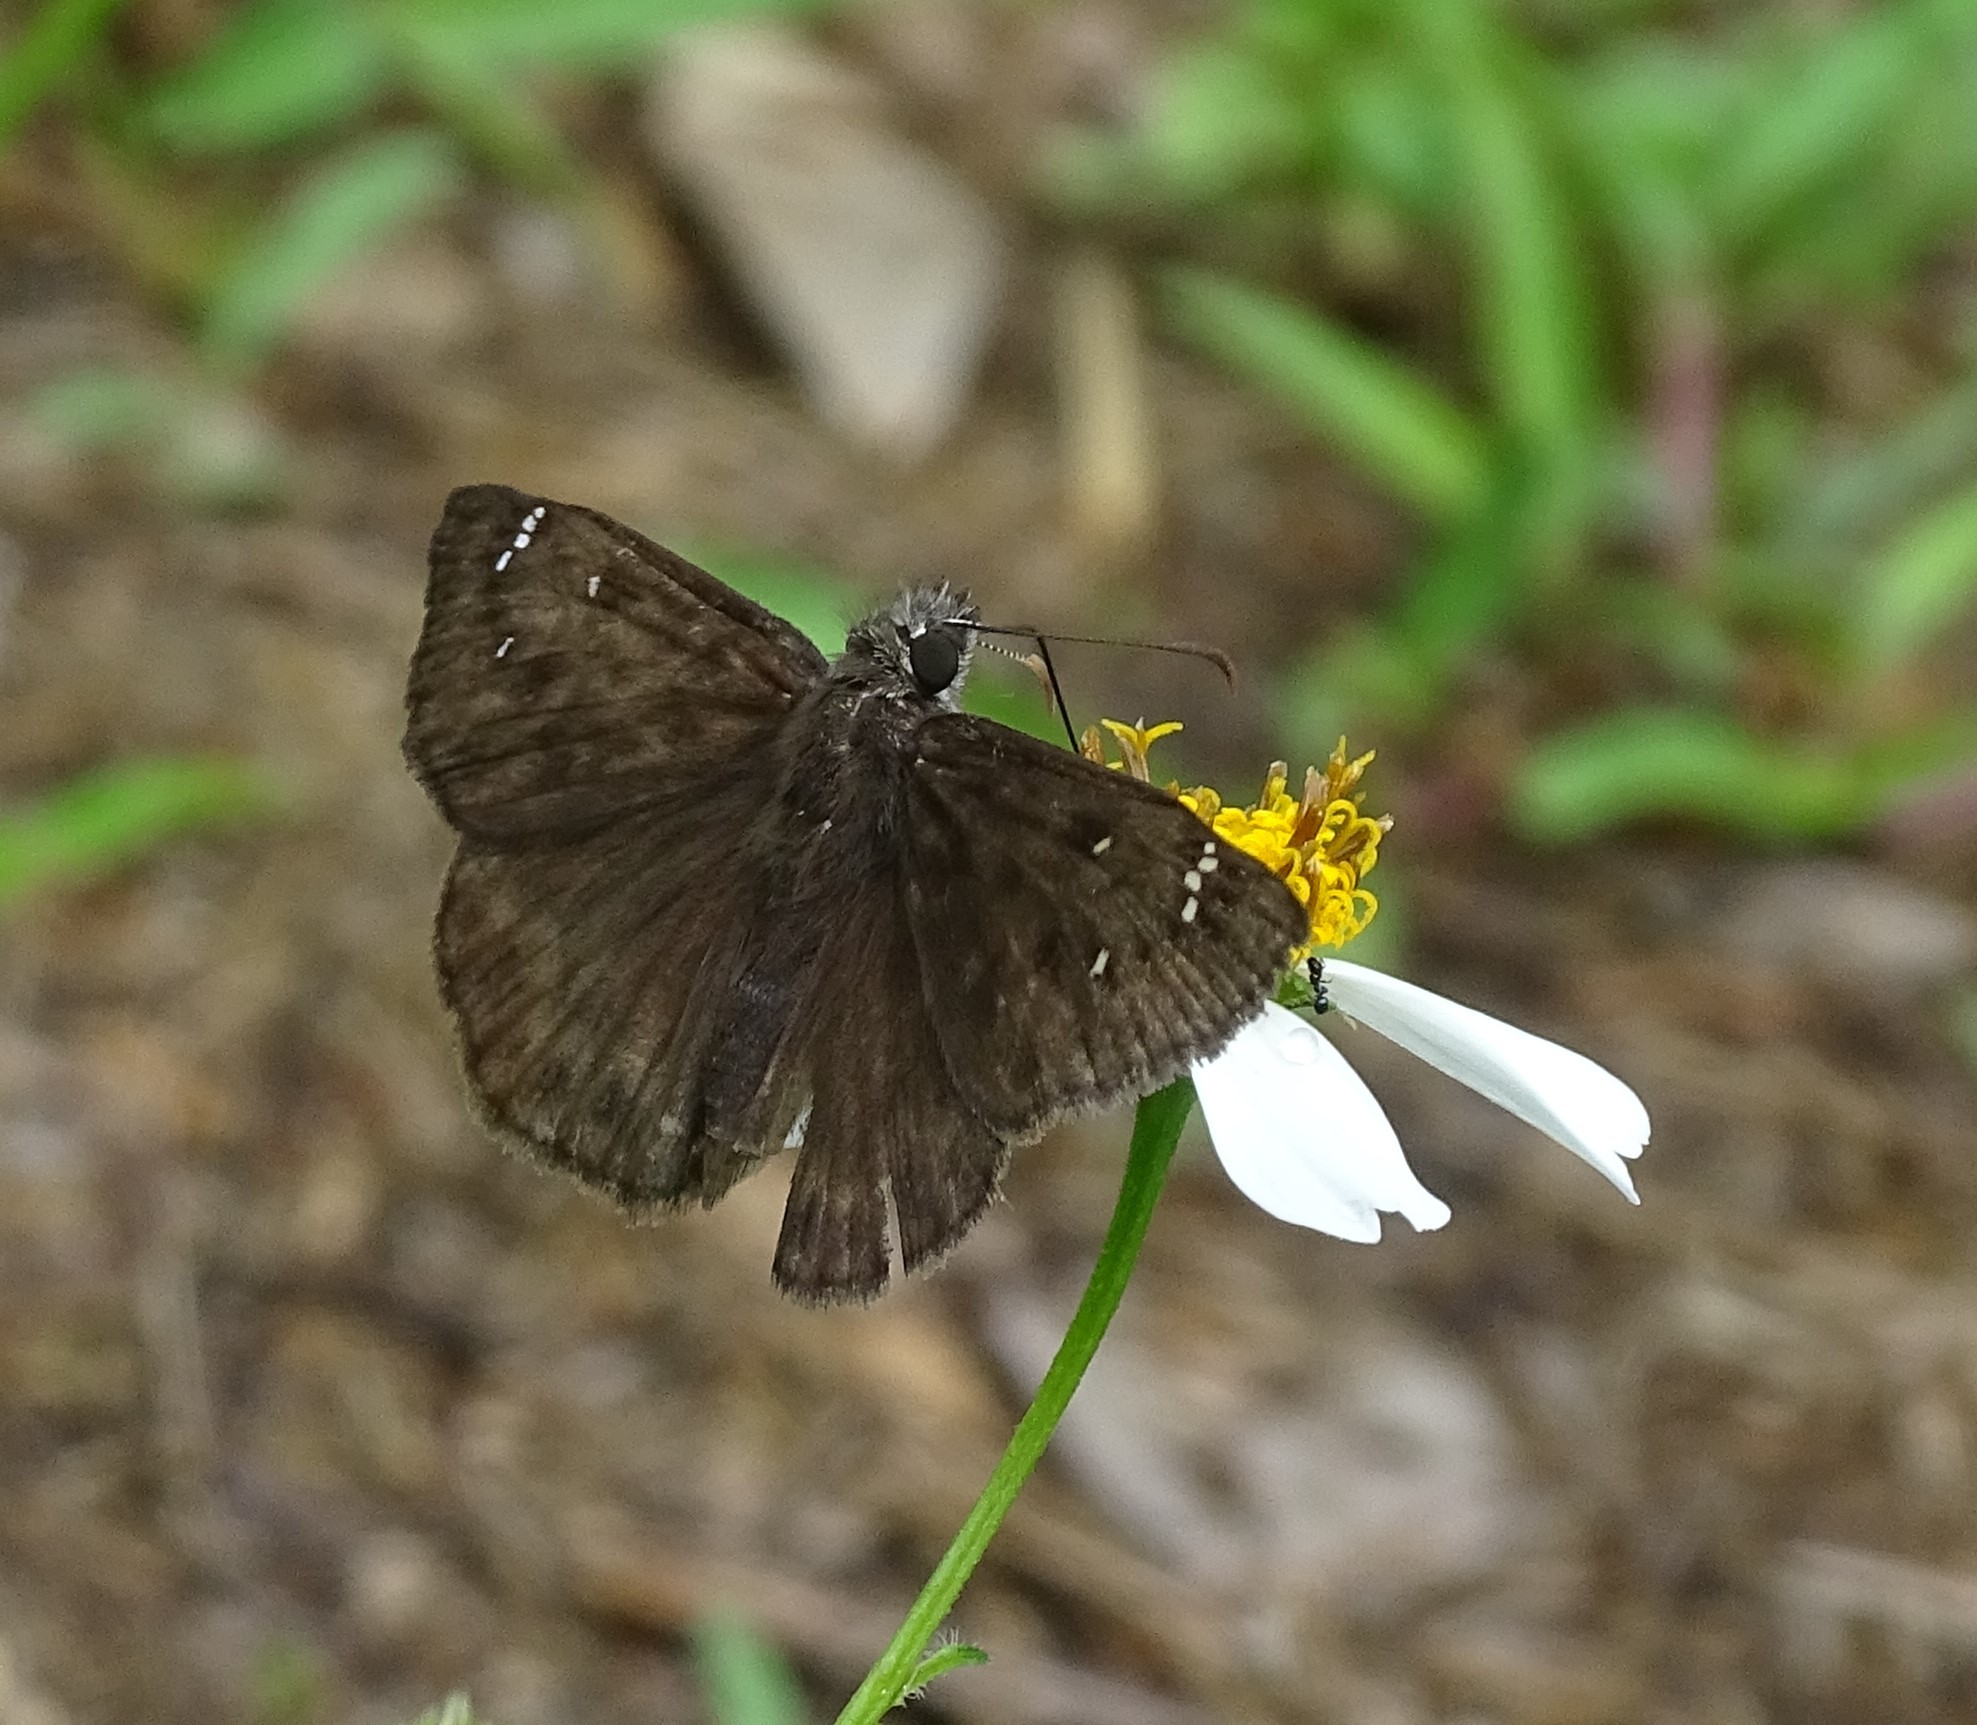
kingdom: Animalia
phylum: Arthropoda
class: Insecta
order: Lepidoptera
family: Hesperiidae
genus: Erynnis
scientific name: Erynnis horatius
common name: Horace's duskywing
